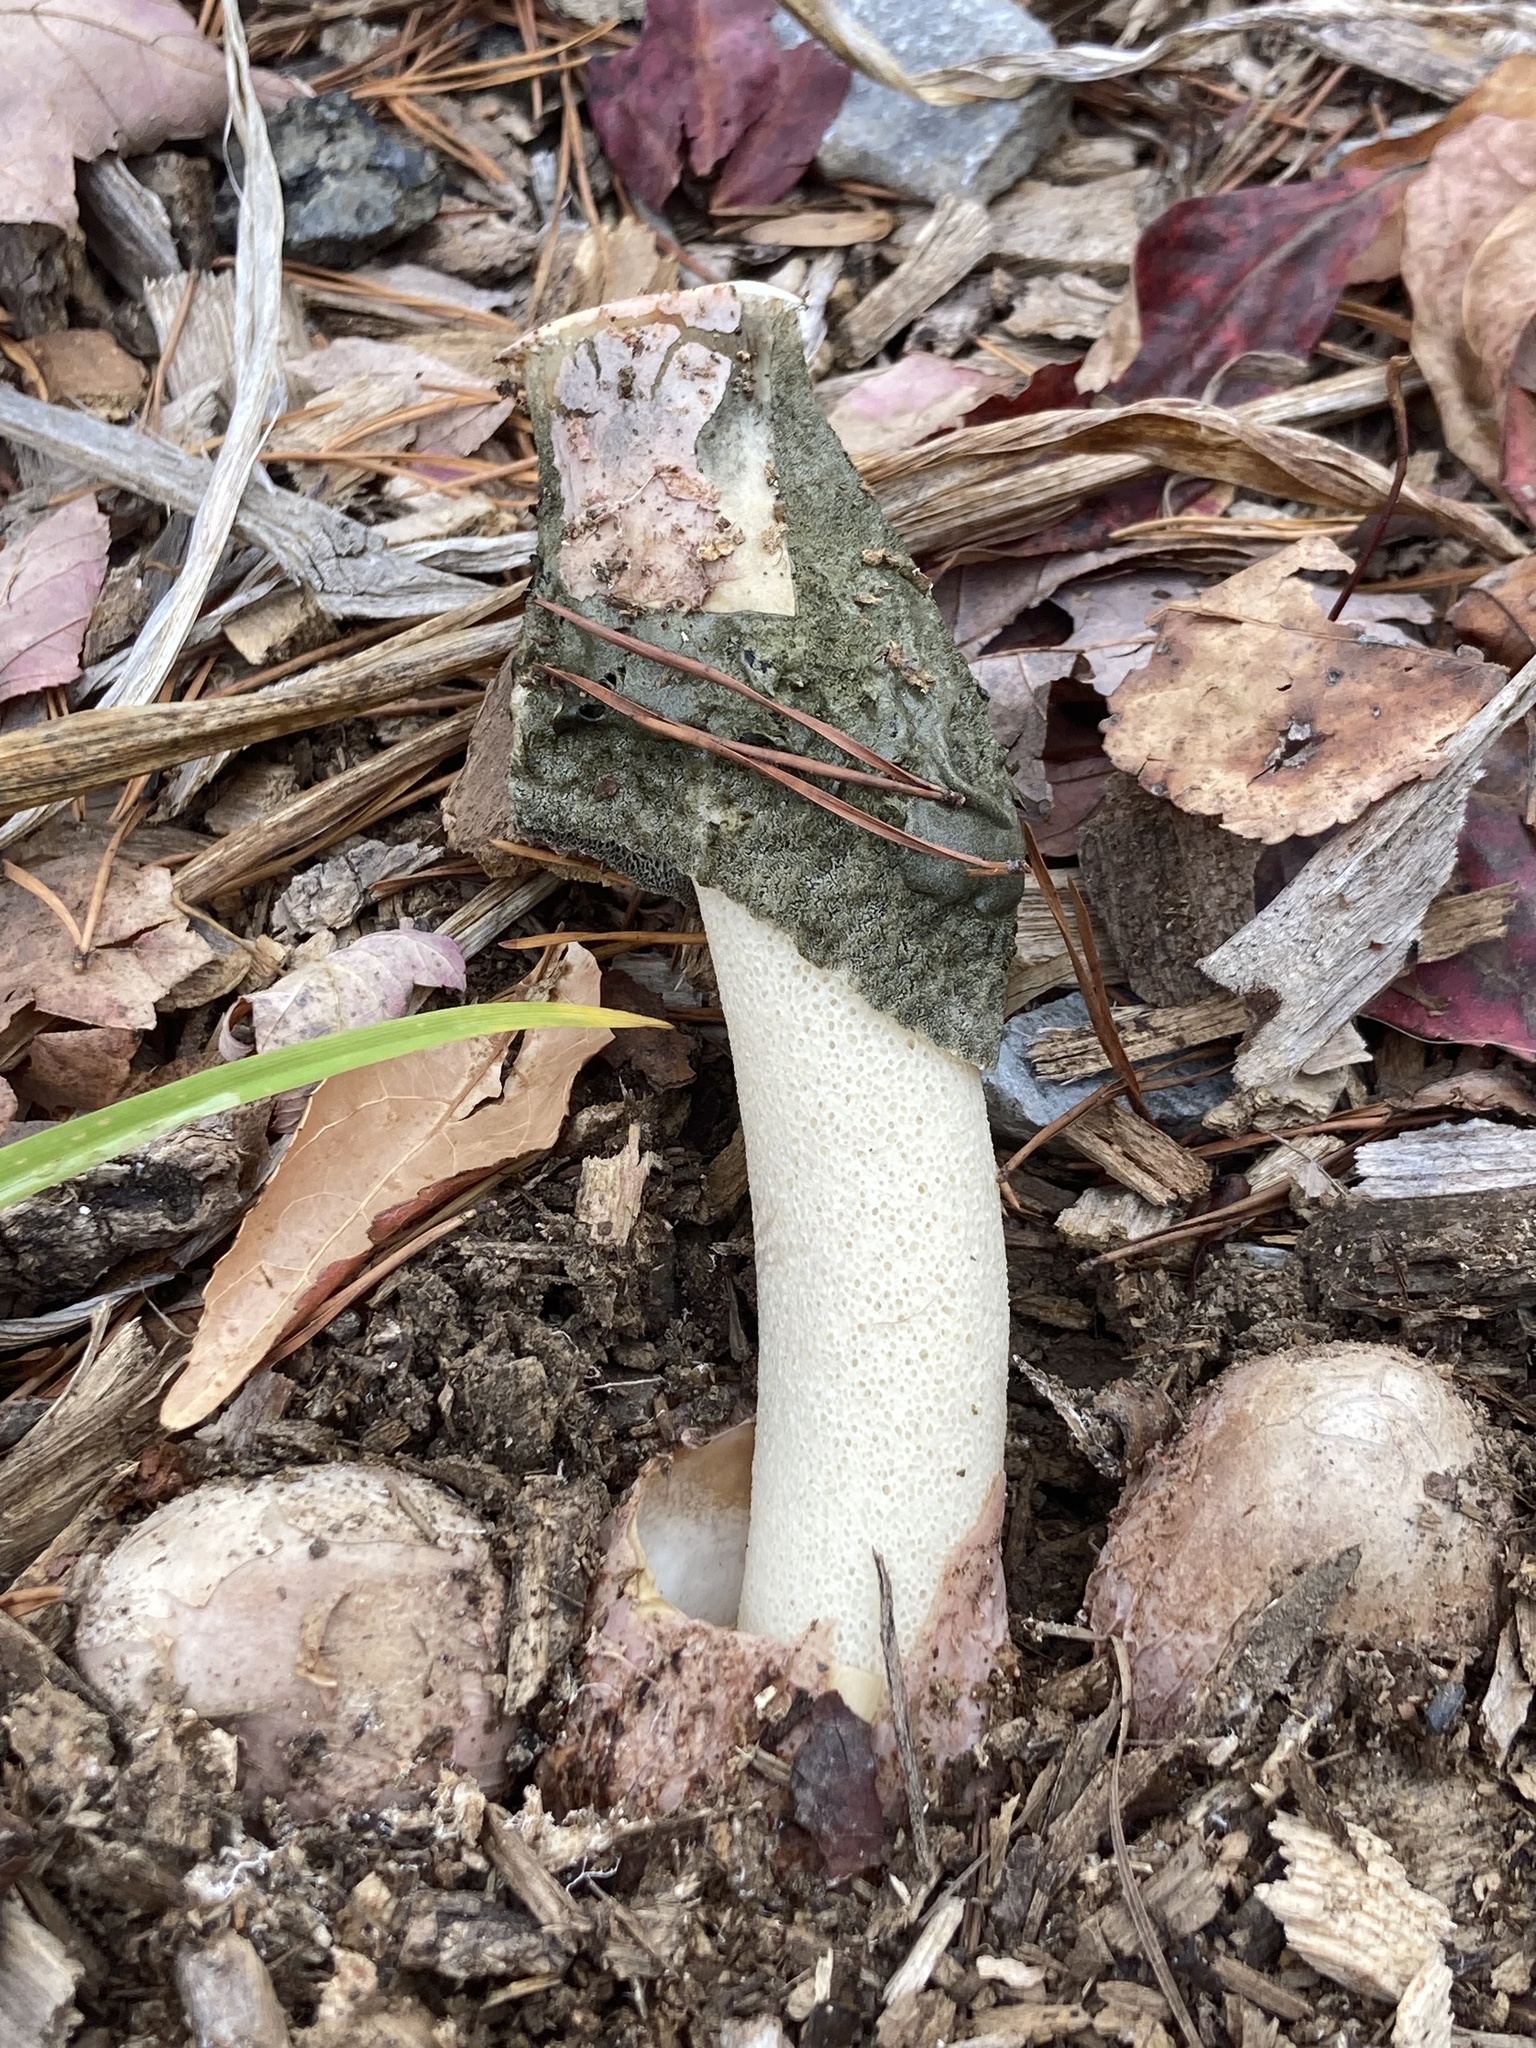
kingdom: Fungi
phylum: Basidiomycota
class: Agaricomycetes
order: Phallales
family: Phallaceae
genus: Phallus
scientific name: Phallus ravenelii
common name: Ravenel's stinkhorn
